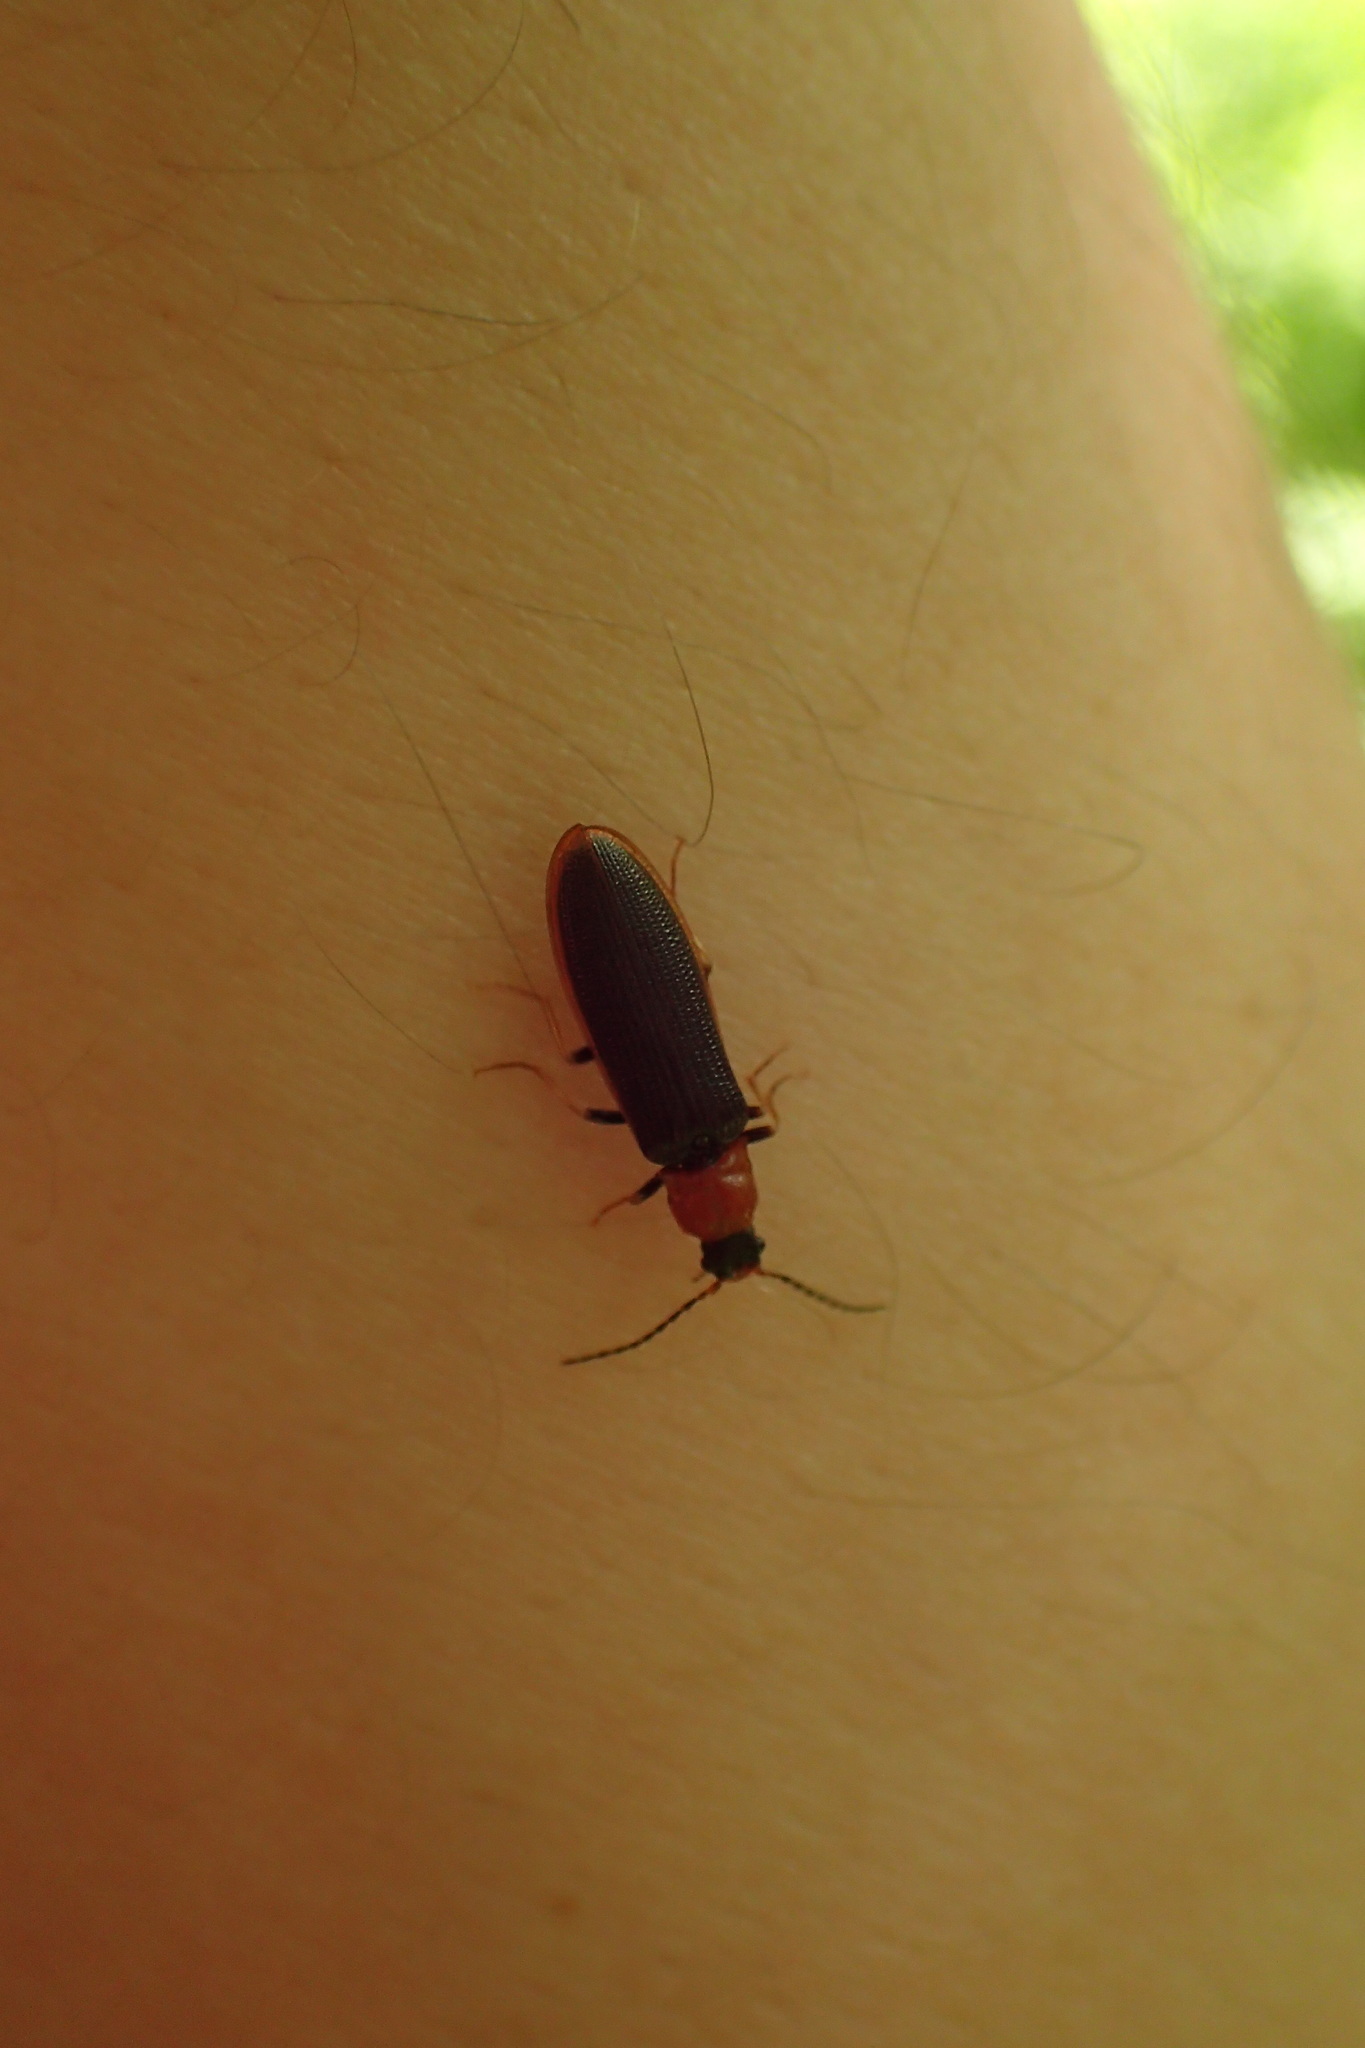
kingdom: Animalia
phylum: Arthropoda
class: Insecta
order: Coleoptera
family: Elateridae
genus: Denticollis
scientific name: Denticollis linearis
